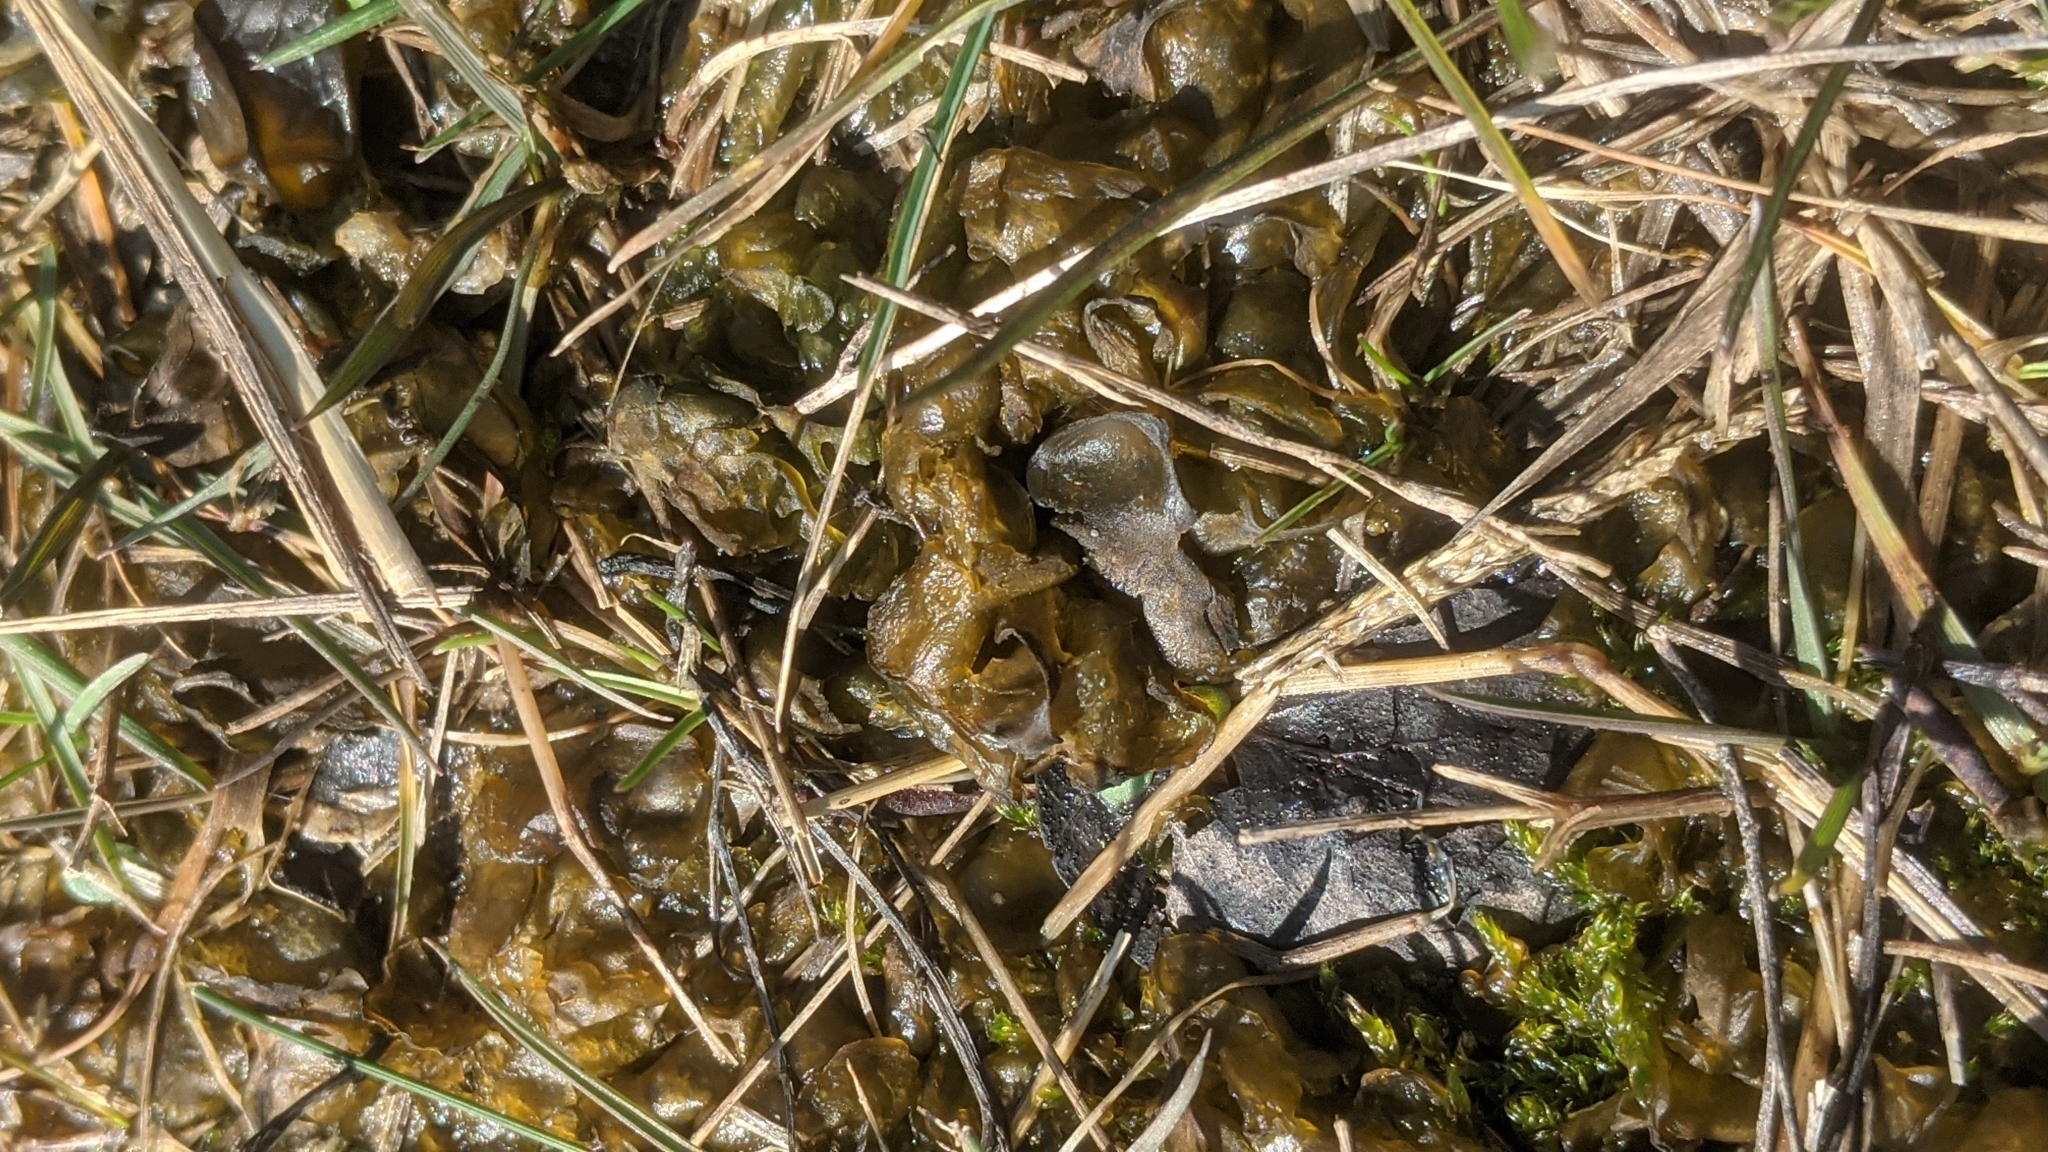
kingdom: Bacteria
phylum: Cyanobacteria
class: Cyanobacteriia
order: Cyanobacteriales
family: Nostocaceae
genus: Nostoc
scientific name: Nostoc commune
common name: Star jelly
